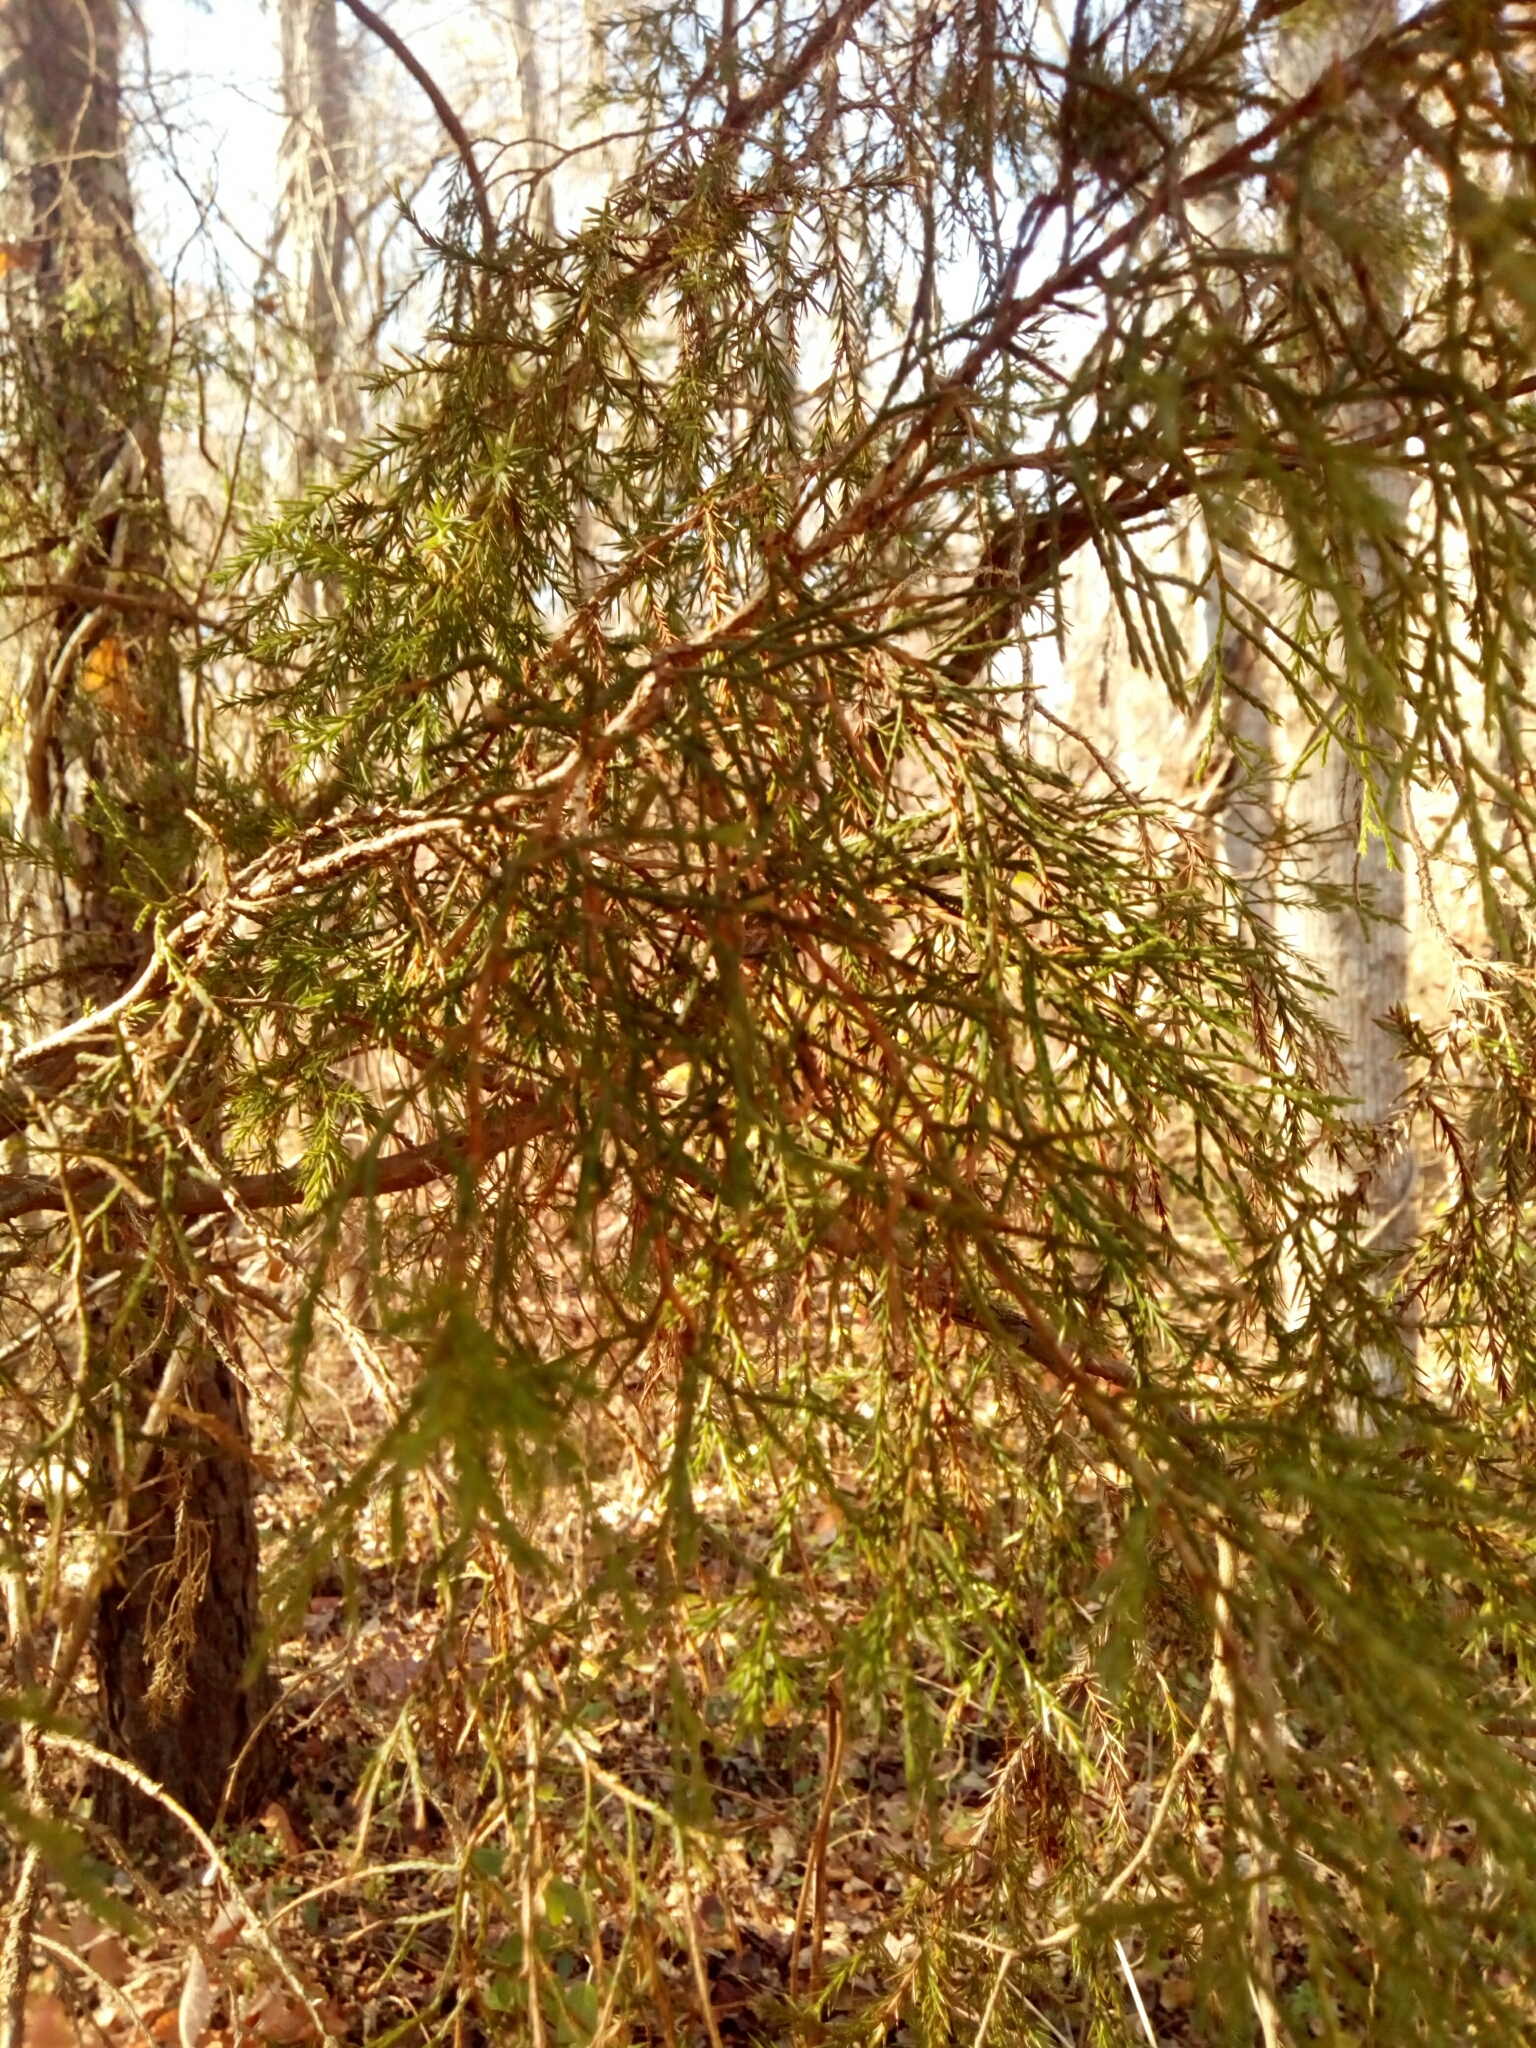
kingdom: Plantae
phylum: Tracheophyta
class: Pinopsida
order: Pinales
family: Cupressaceae
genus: Juniperus
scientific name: Juniperus virginiana
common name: Red juniper
